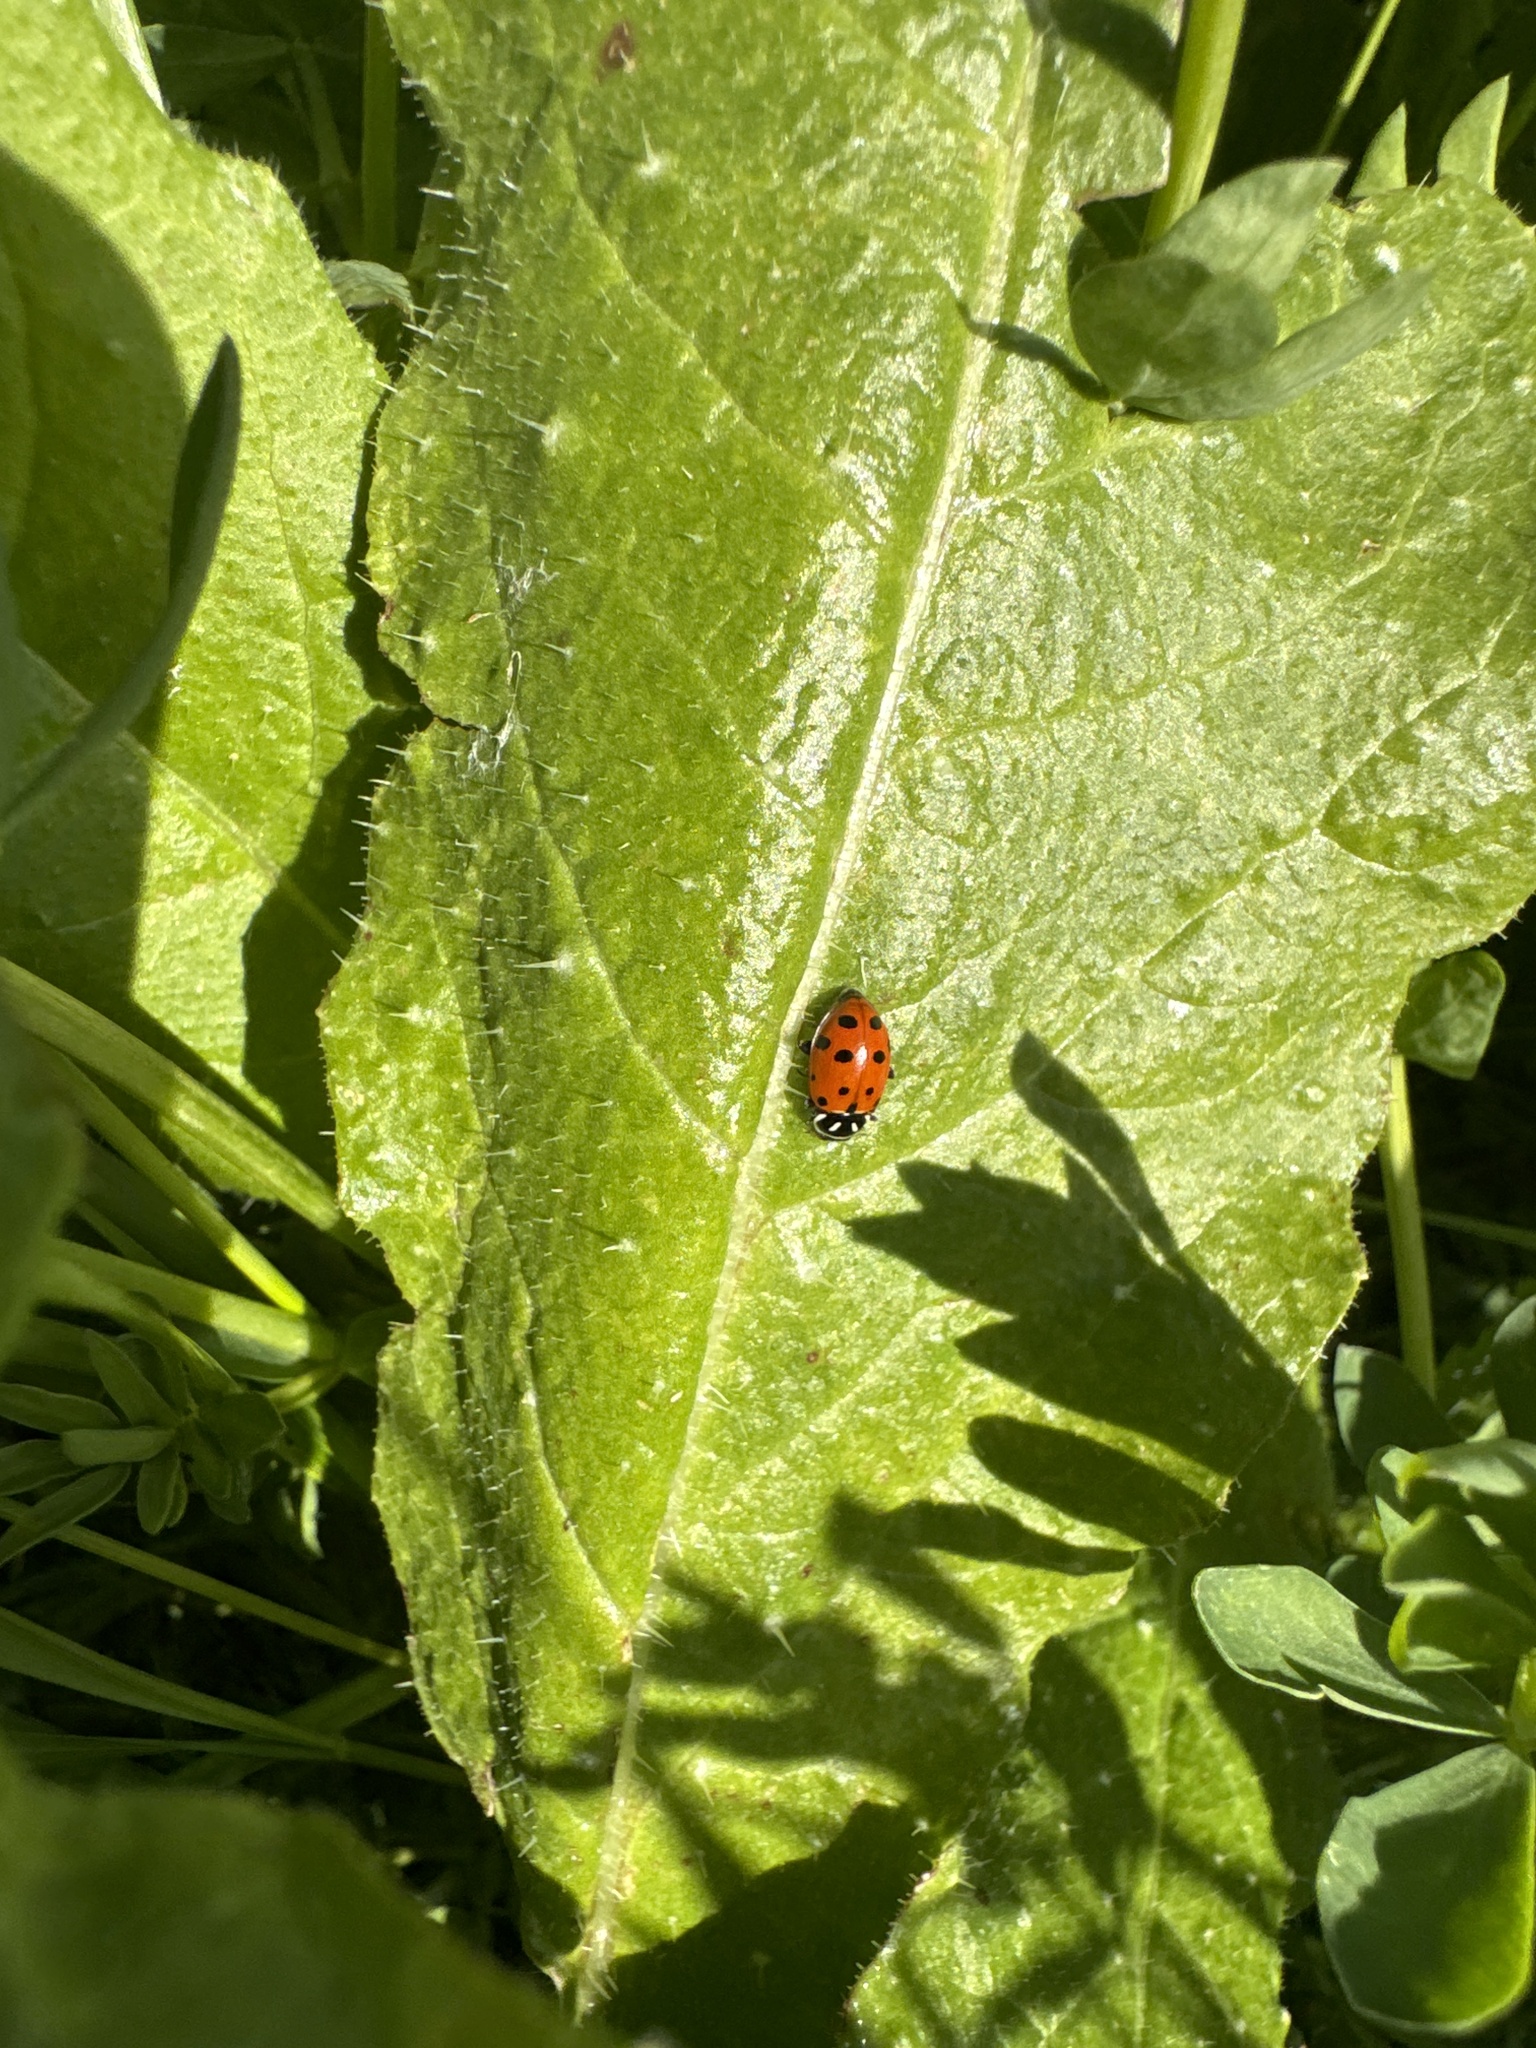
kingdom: Animalia
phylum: Arthropoda
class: Insecta
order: Coleoptera
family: Coccinellidae
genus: Hippodamia
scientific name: Hippodamia convergens
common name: Convergent lady beetle
